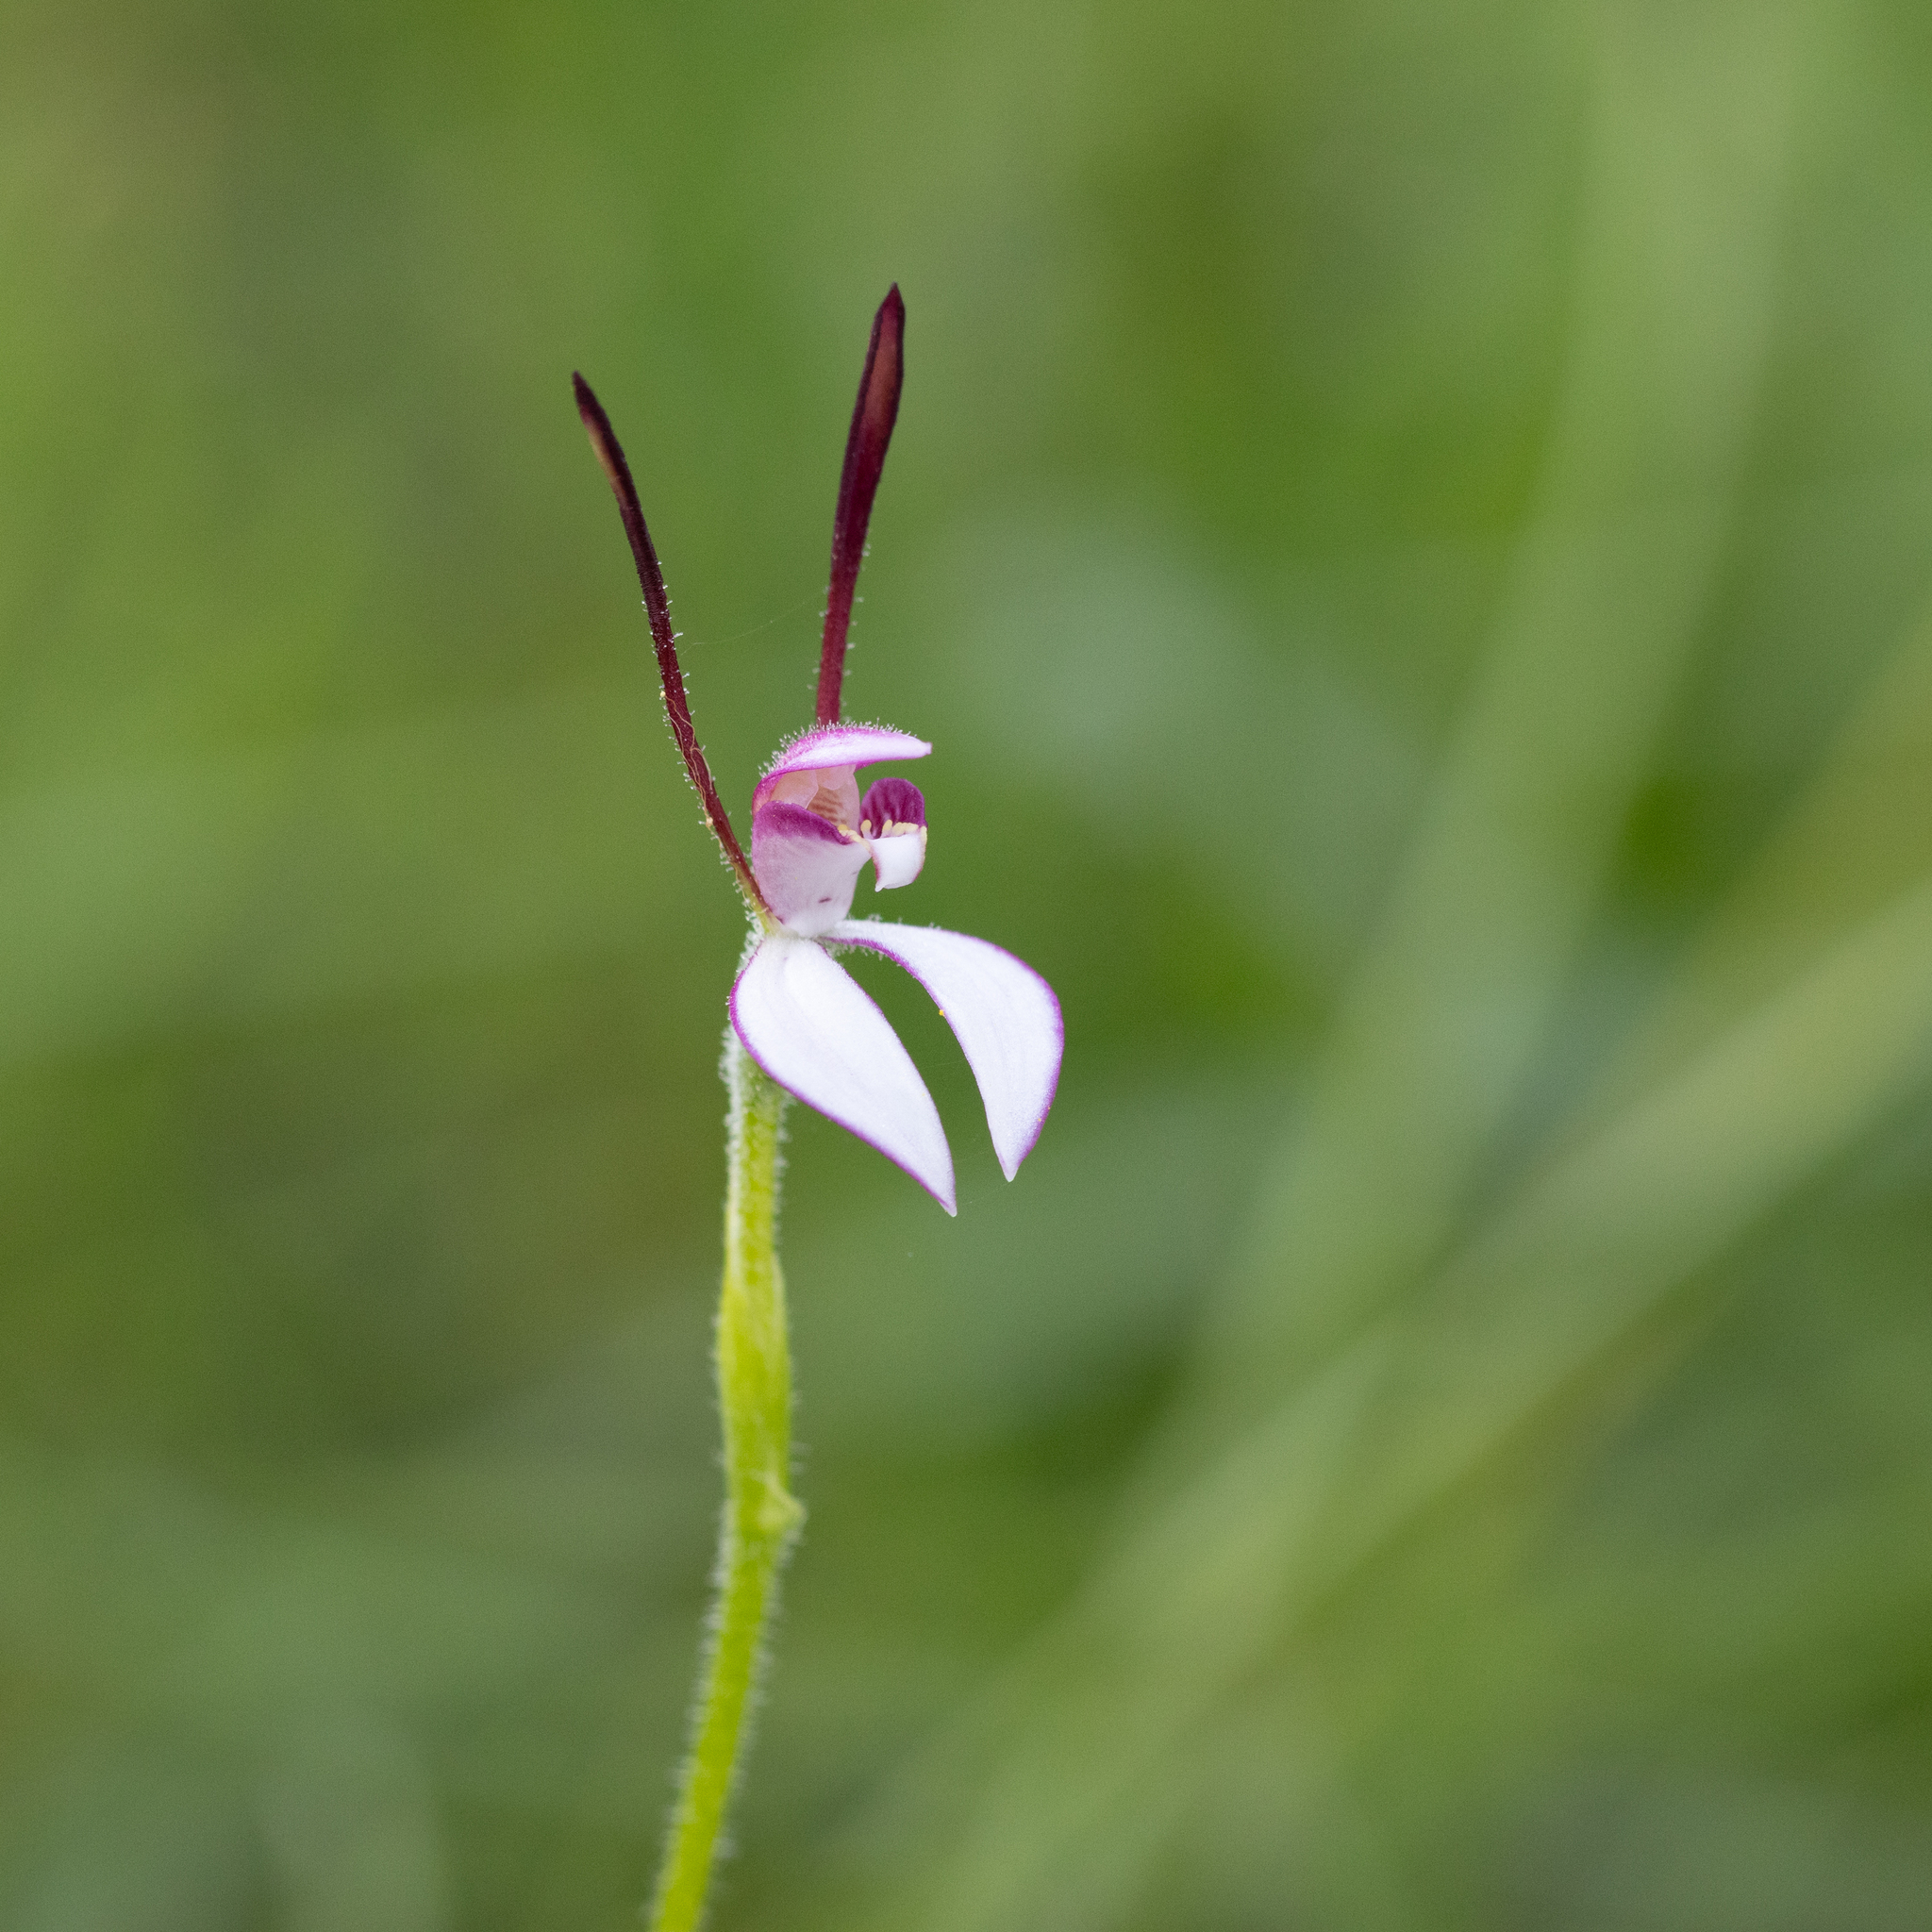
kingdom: Plantae
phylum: Tracheophyta
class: Liliopsida
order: Asparagales
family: Orchidaceae
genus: Leptoceras
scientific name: Leptoceras menziesii
